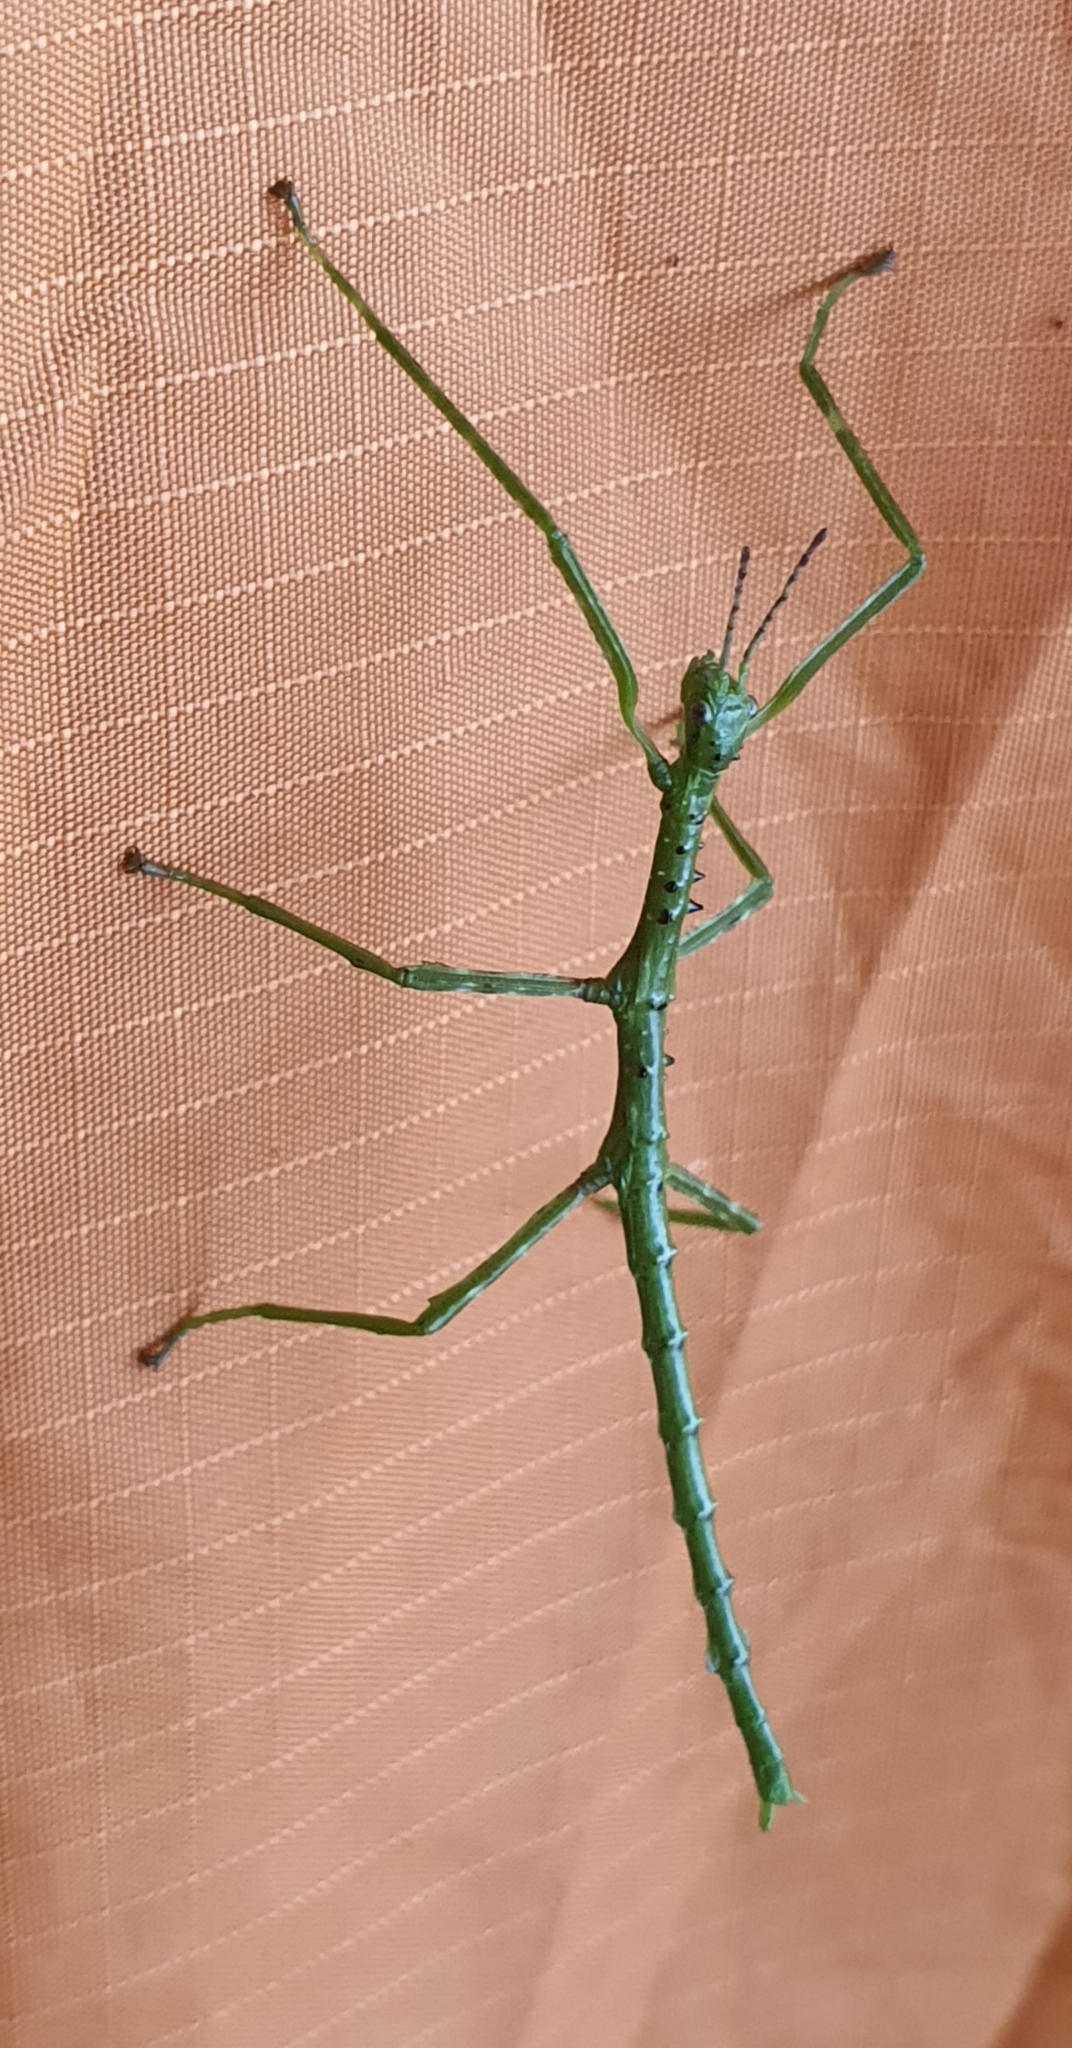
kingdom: Animalia
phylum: Arthropoda
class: Insecta
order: Phasmida
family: Phasmatidae
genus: Acanthoxyla
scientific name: Acanthoxyla prasina
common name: Black-spined stick insect
